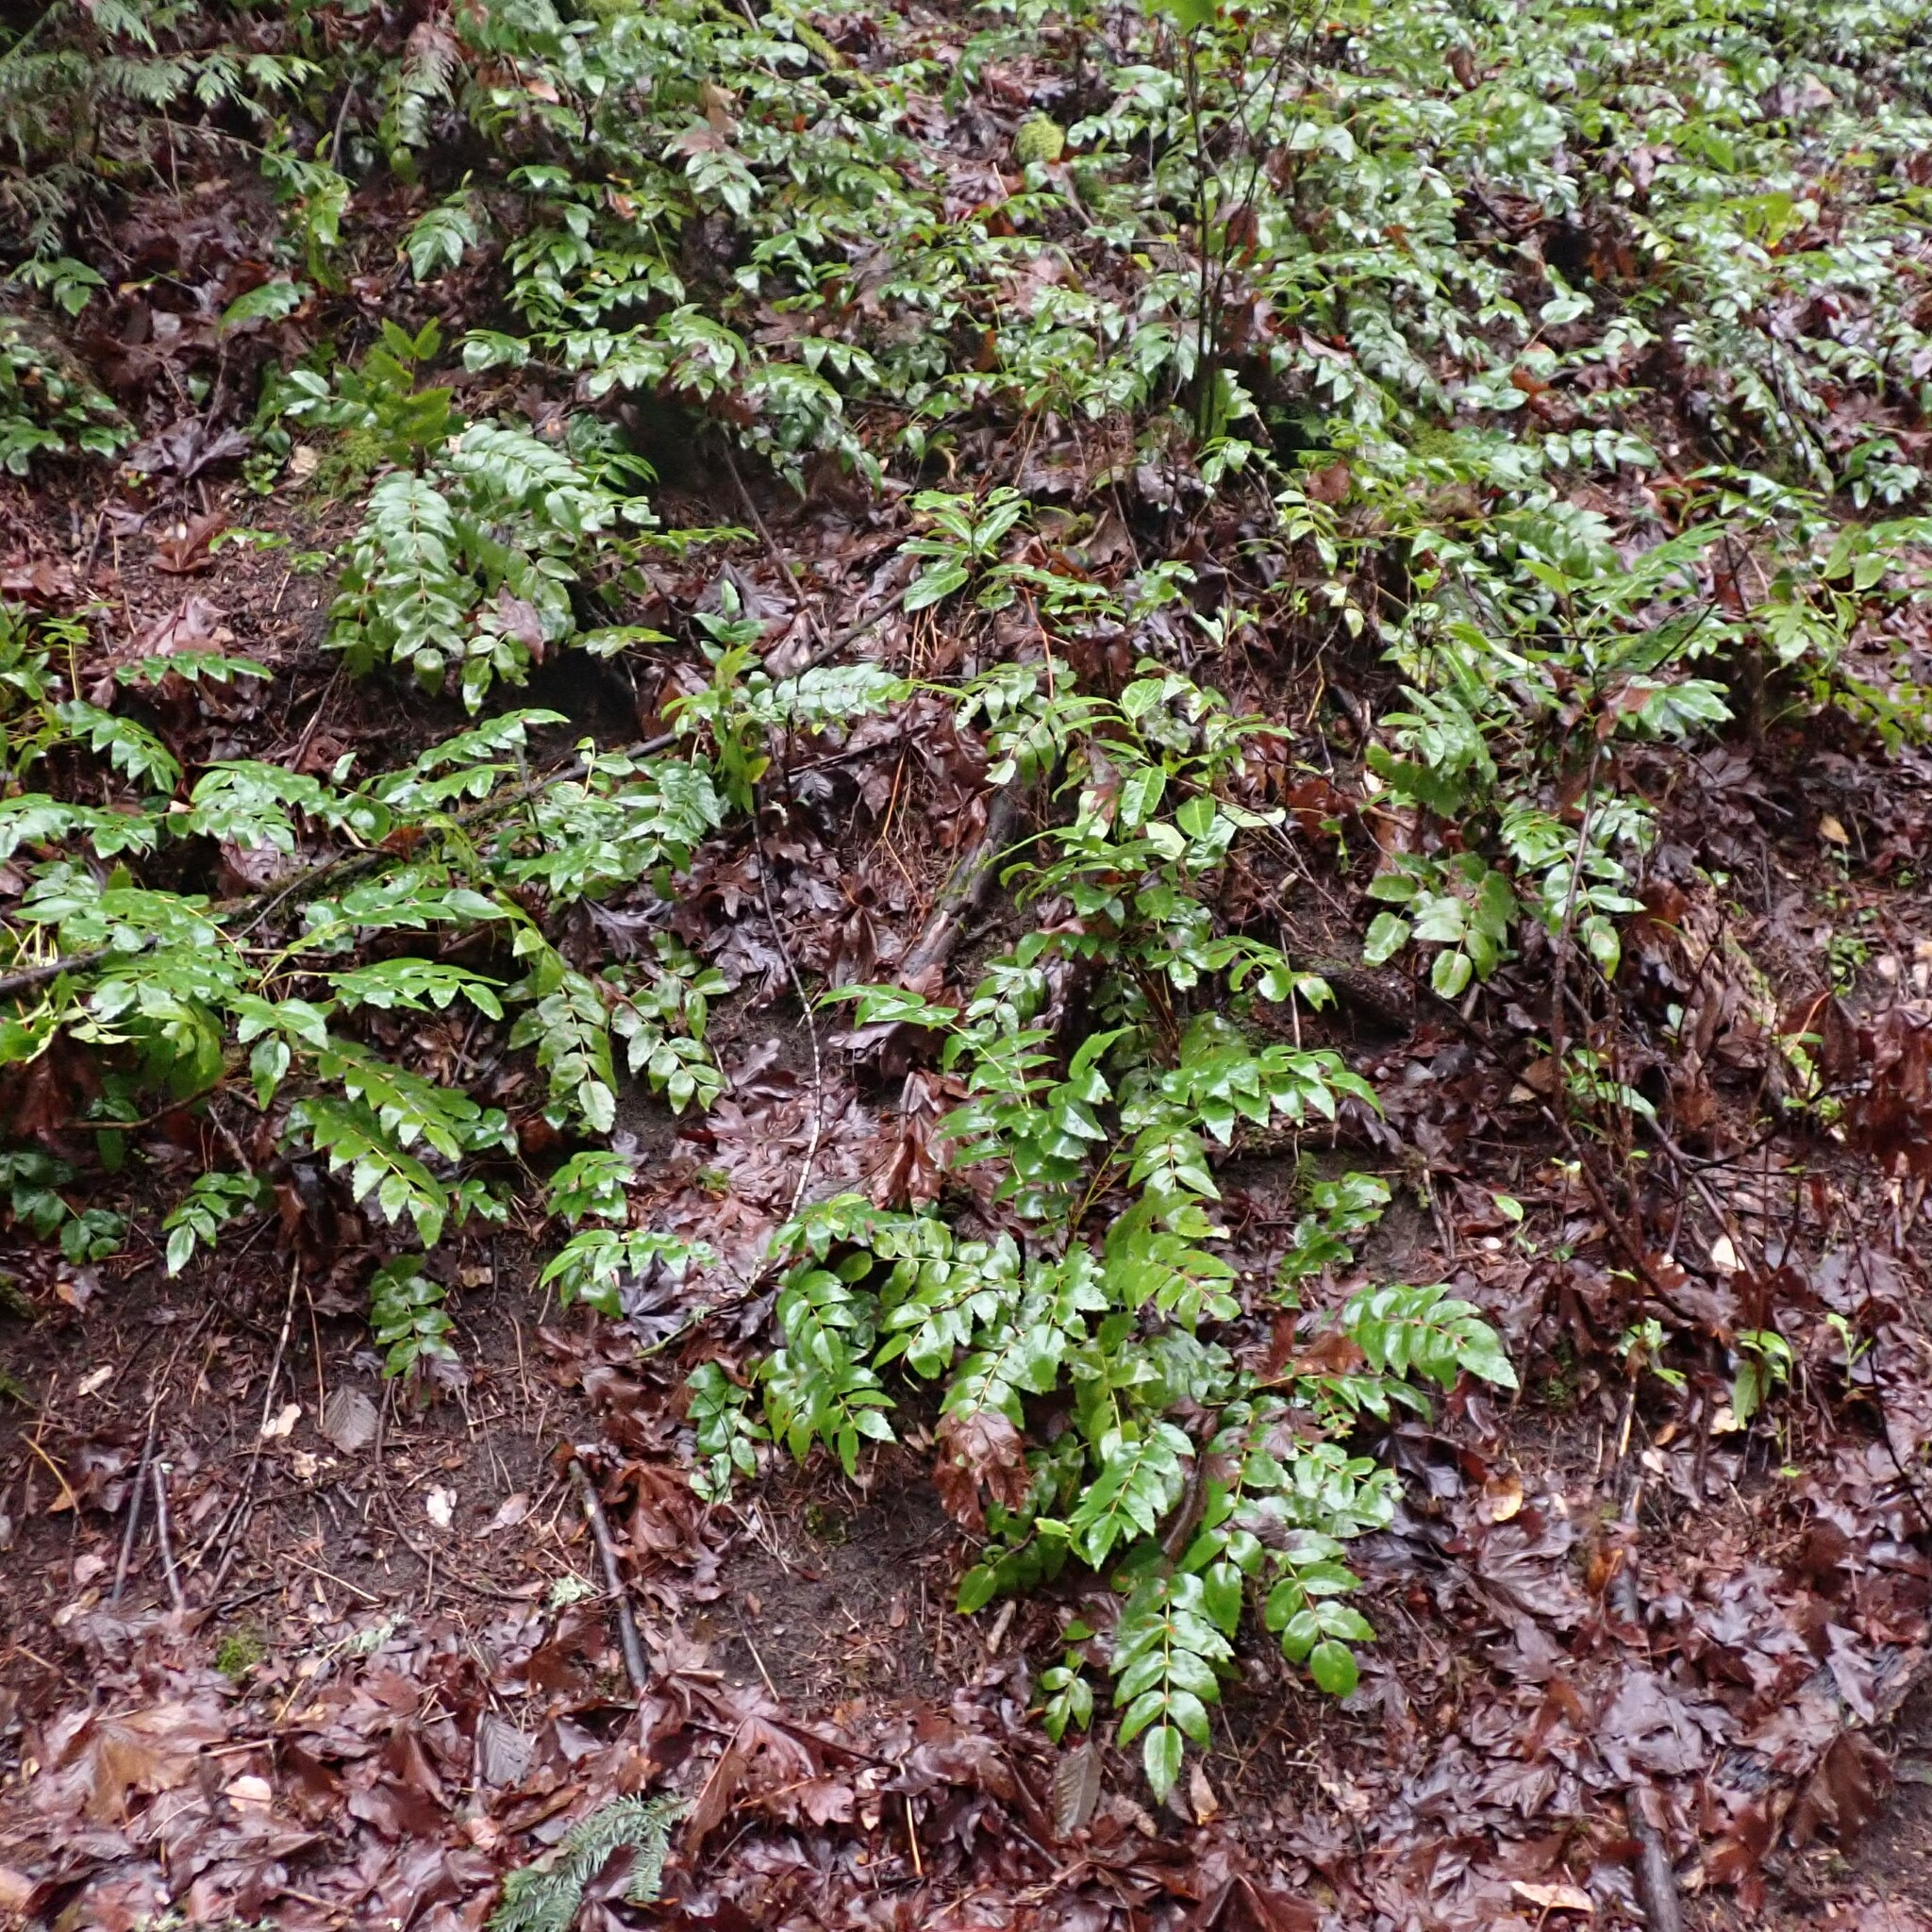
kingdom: Plantae
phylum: Tracheophyta
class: Magnoliopsida
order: Ranunculales
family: Berberidaceae
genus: Mahonia
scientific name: Mahonia nervosa
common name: Cascade oregon-grape
